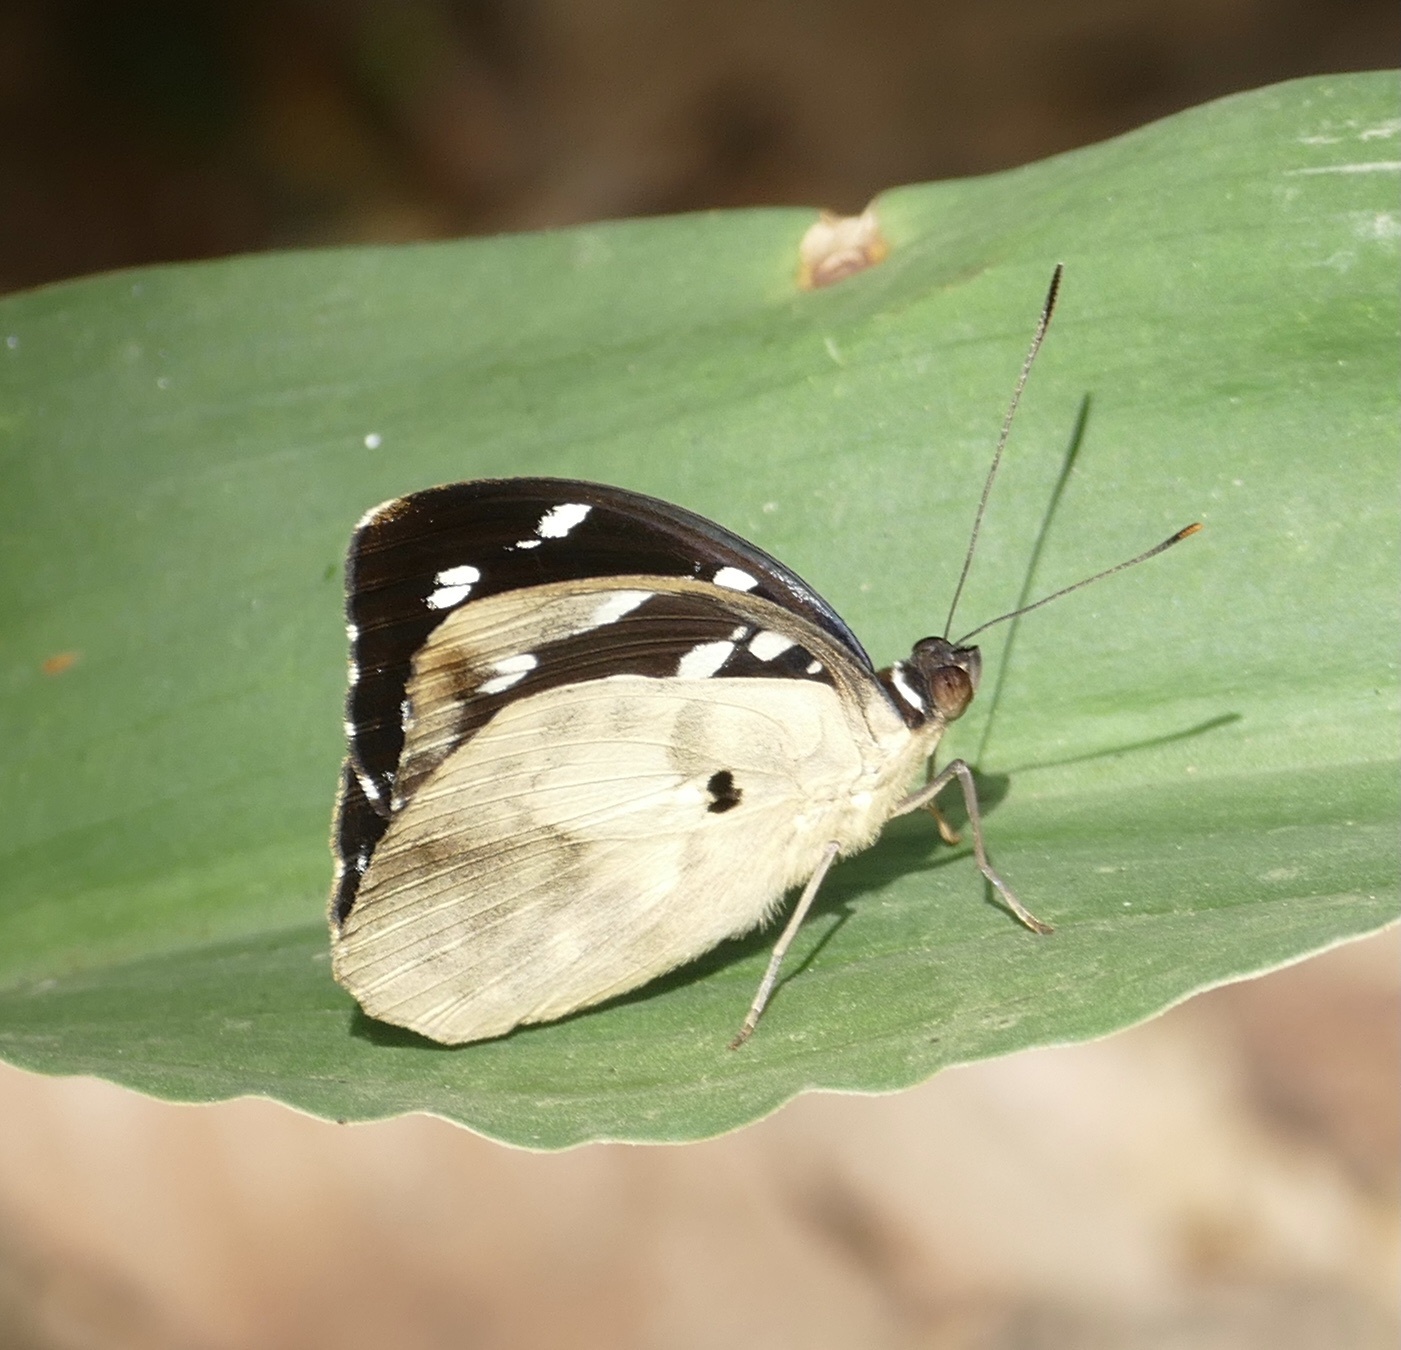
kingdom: Animalia
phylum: Arthropoda
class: Insecta
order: Lepidoptera
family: Nymphalidae
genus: Aterica
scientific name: Aterica galene
